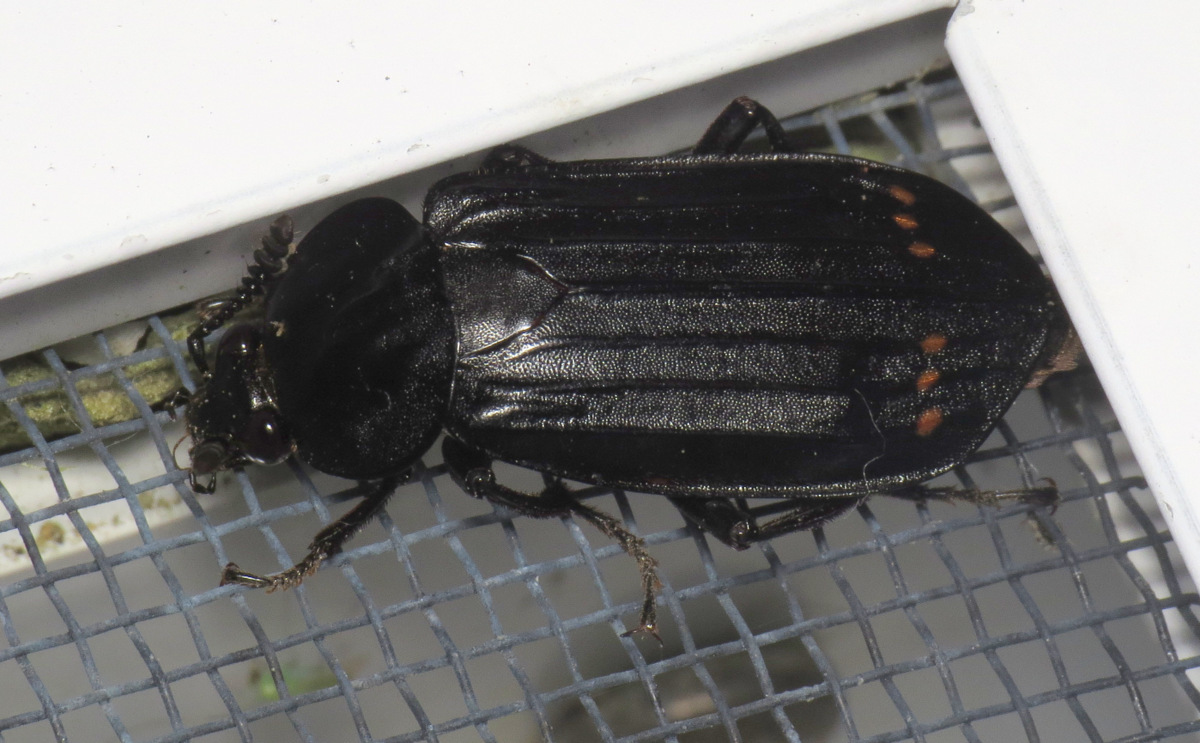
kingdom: Animalia
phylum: Arthropoda
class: Insecta
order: Coleoptera
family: Staphylinidae
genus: Necrodes
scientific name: Necrodes surinamensis
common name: Red-lined carrion beetle
